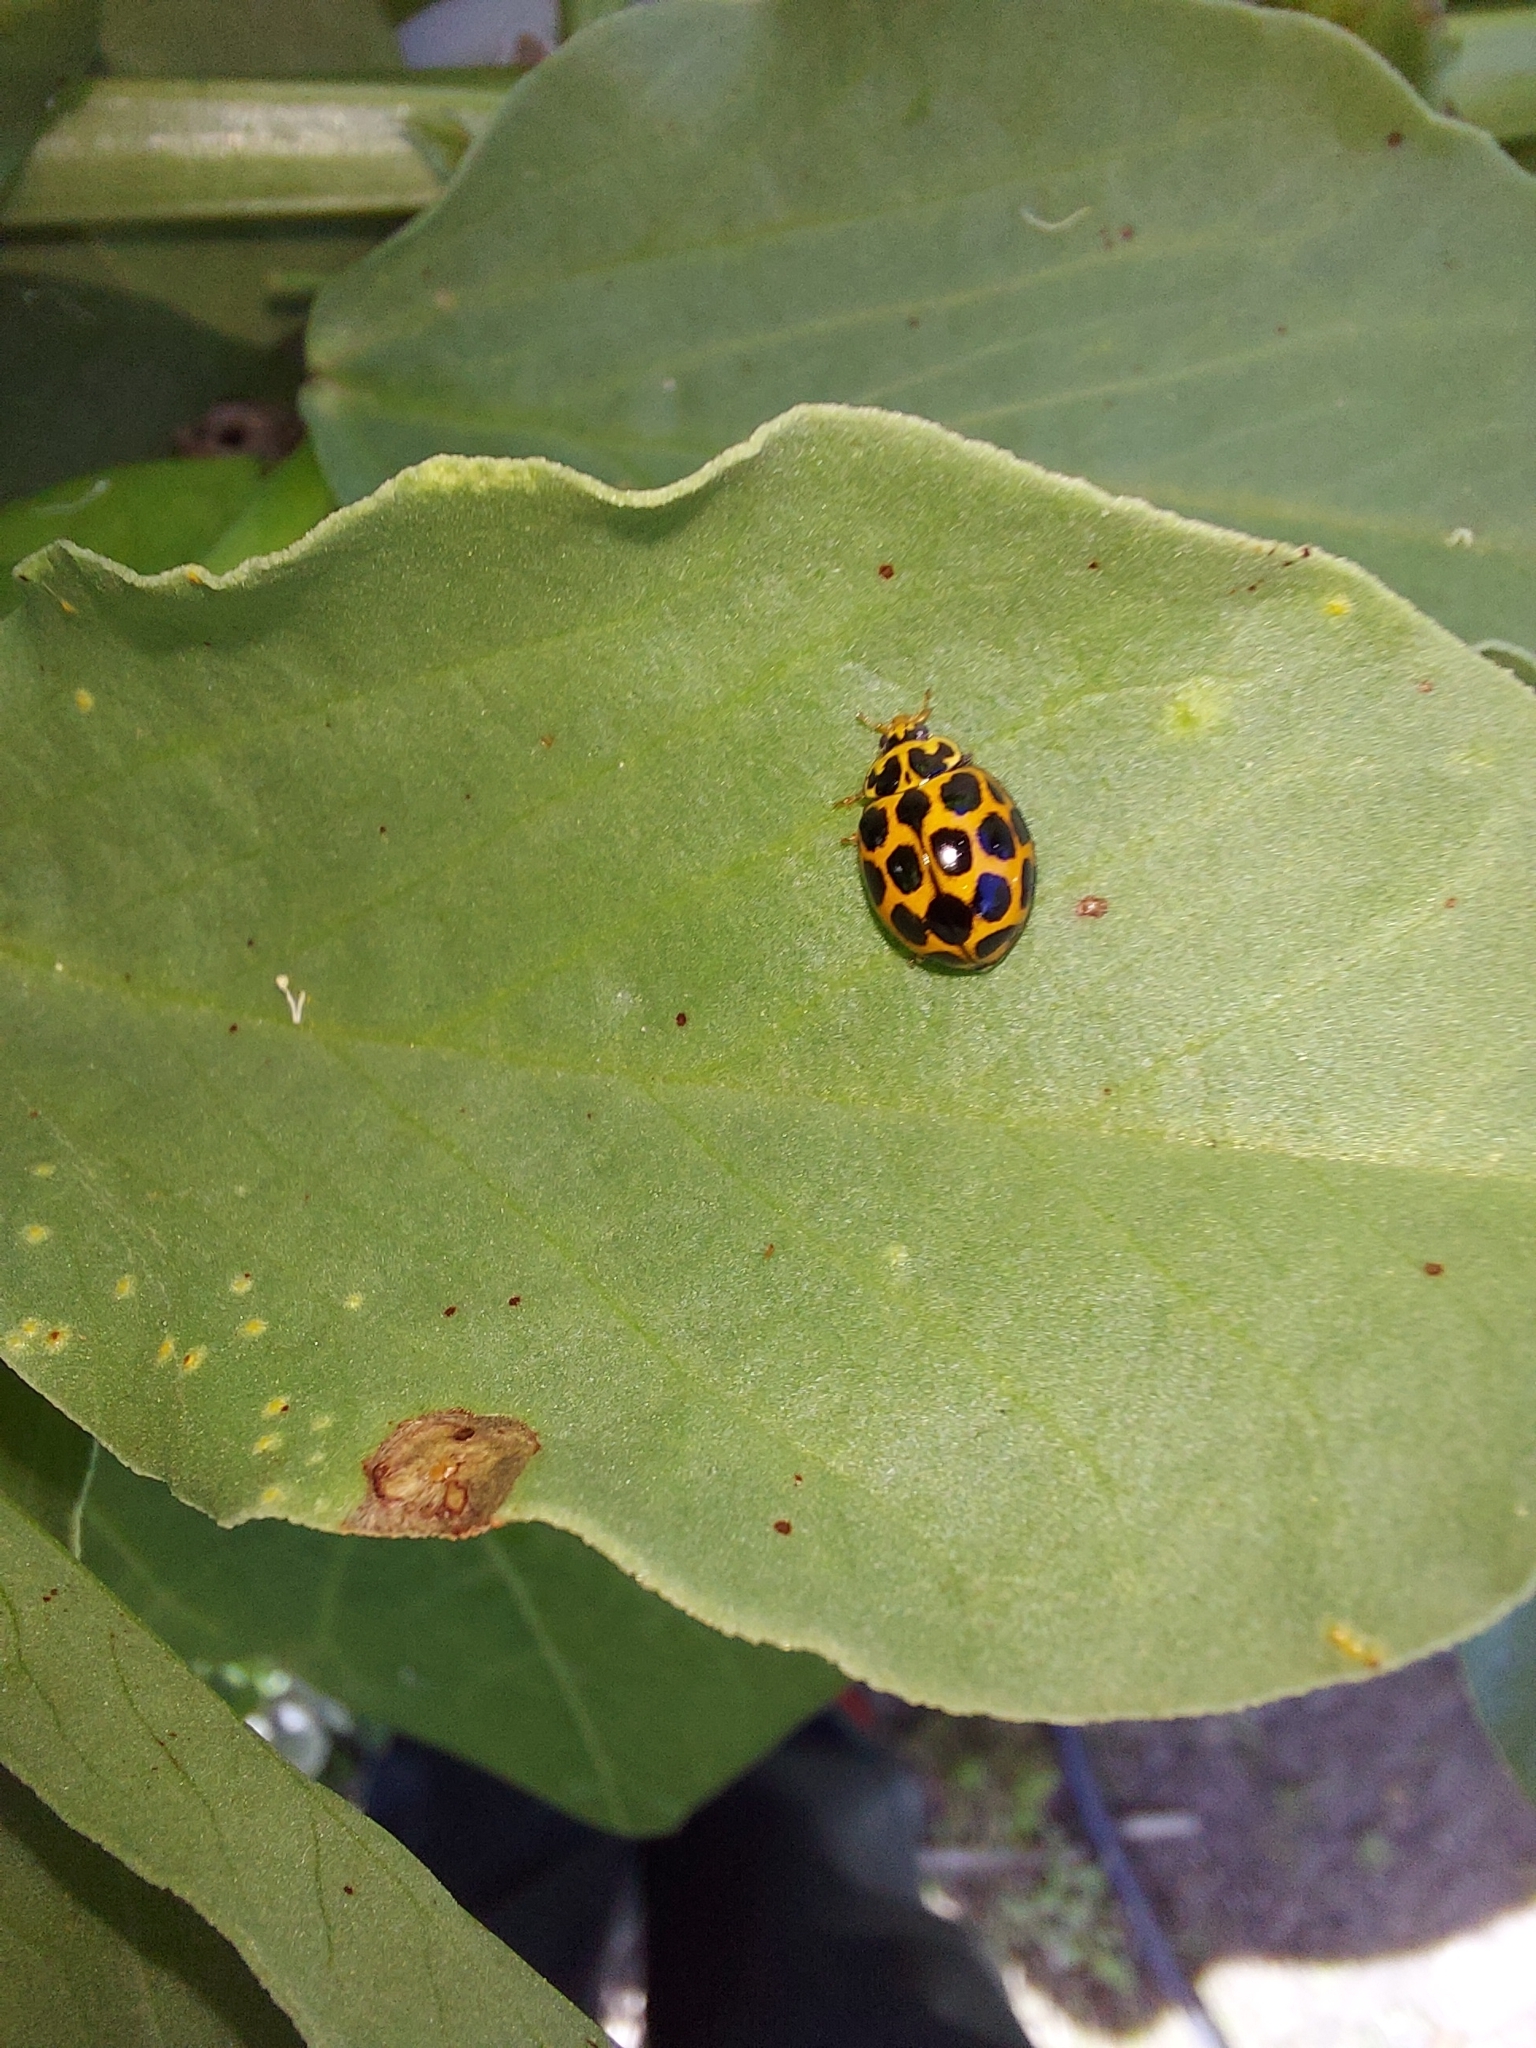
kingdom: Animalia
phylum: Arthropoda
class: Insecta
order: Coleoptera
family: Coccinellidae
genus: Harmonia
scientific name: Harmonia conformis
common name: Common spotted ladybird beetle
